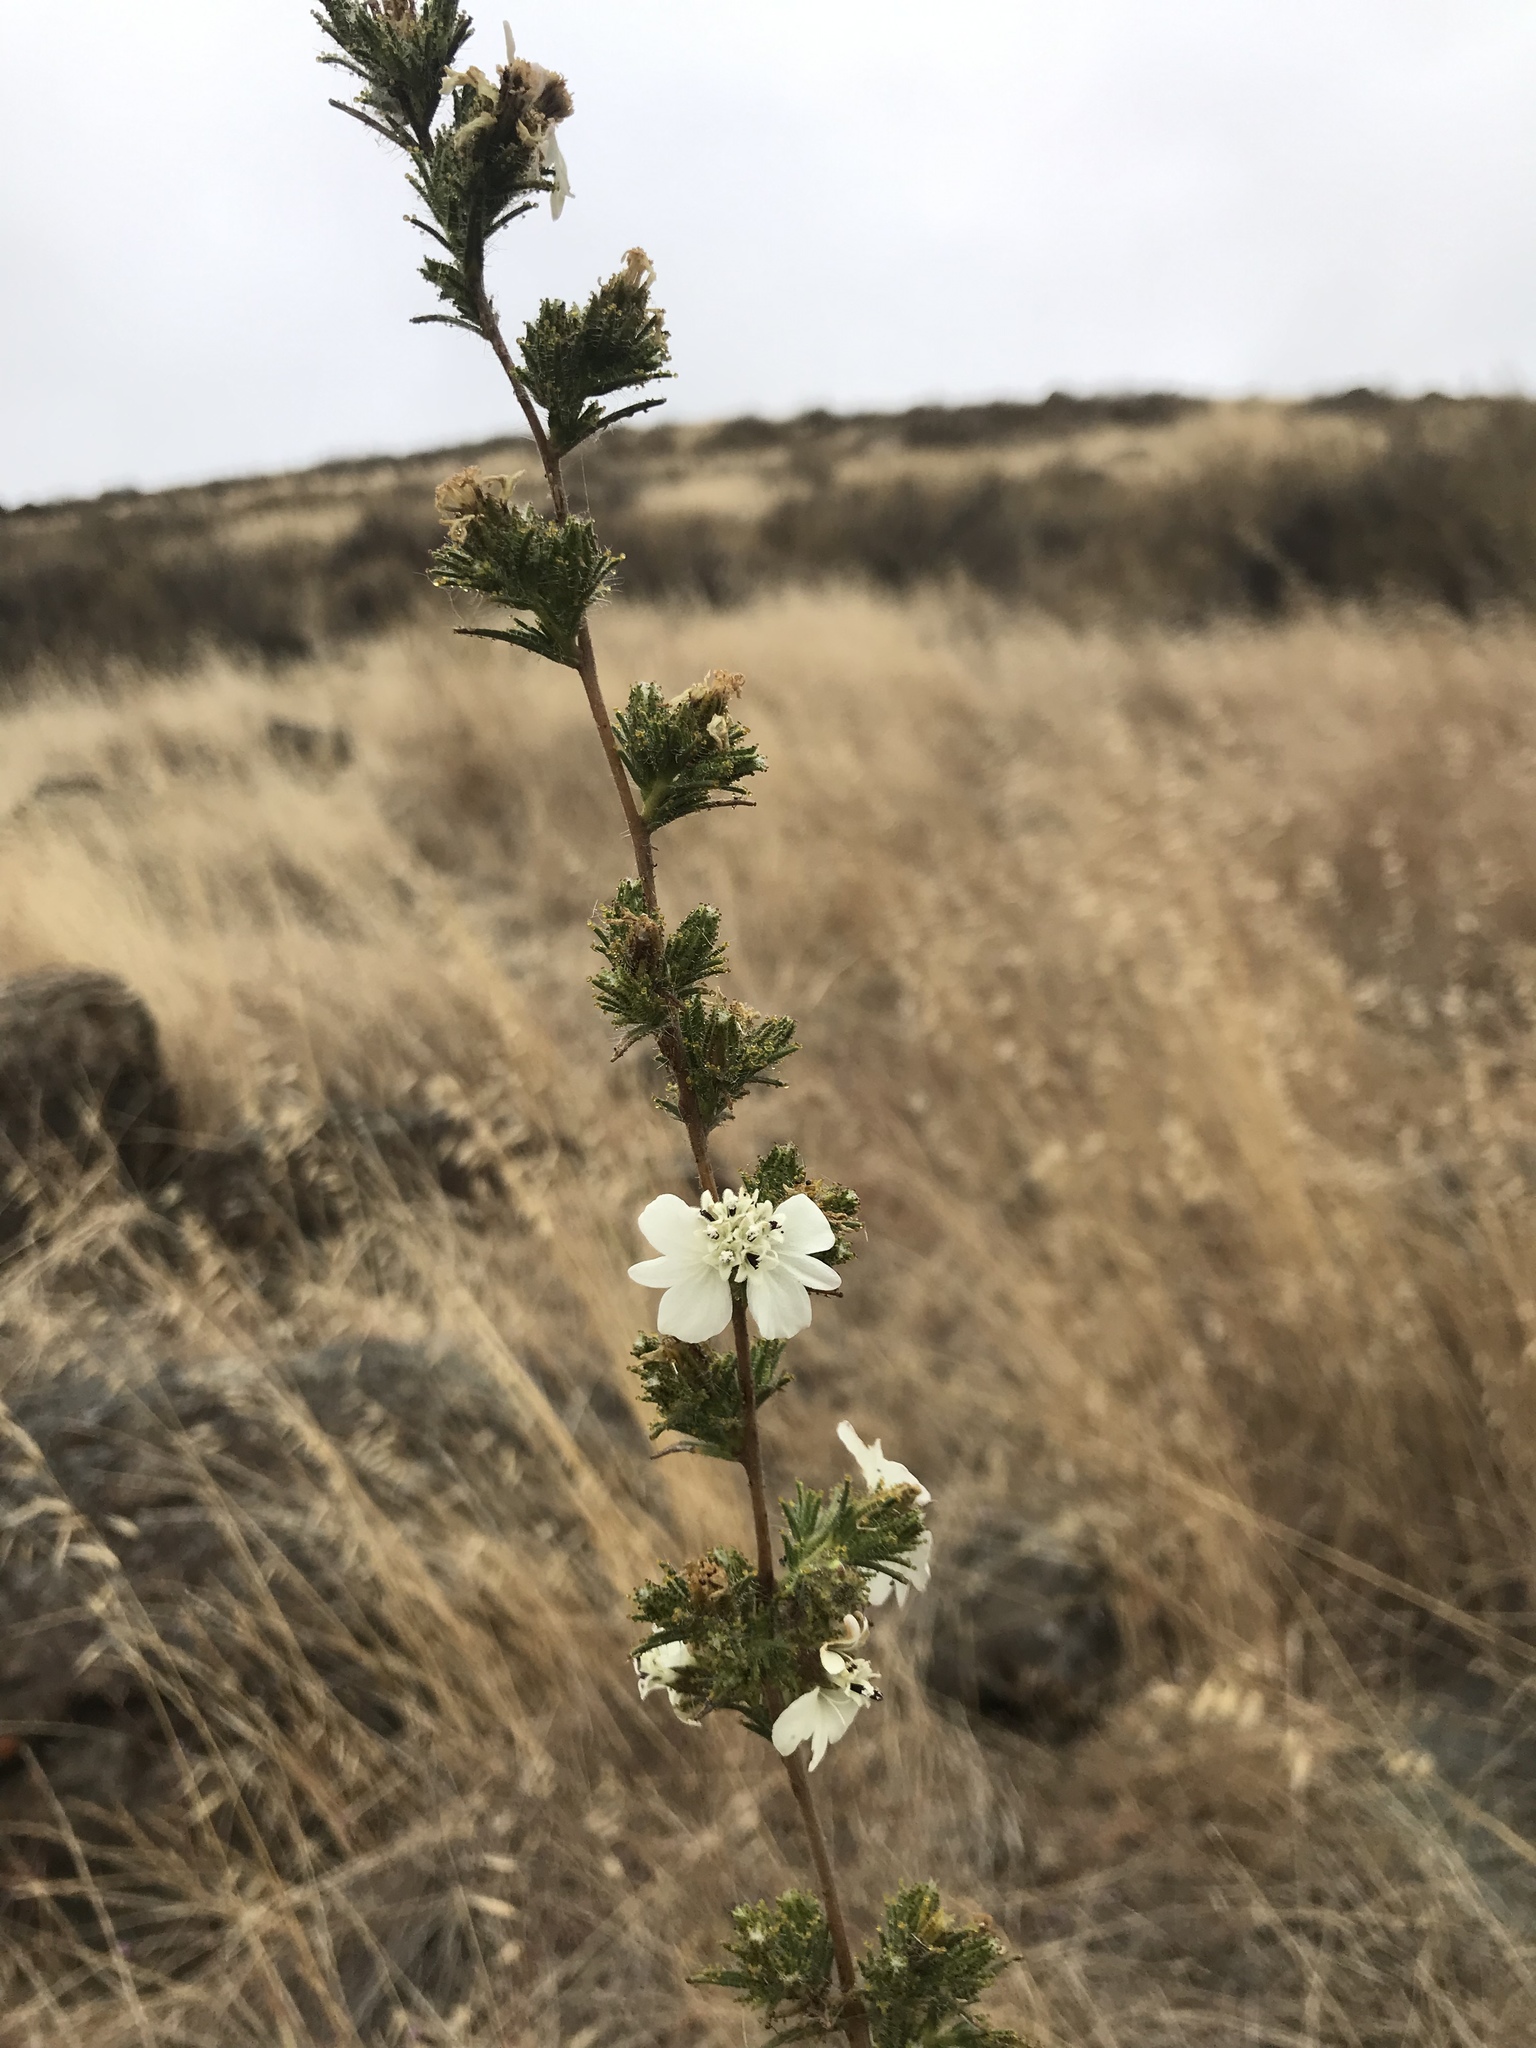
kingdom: Plantae
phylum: Tracheophyta
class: Magnoliopsida
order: Asterales
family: Asteraceae
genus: Calycadenia
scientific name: Calycadenia multiglandulosa
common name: Sticky calycadenia
